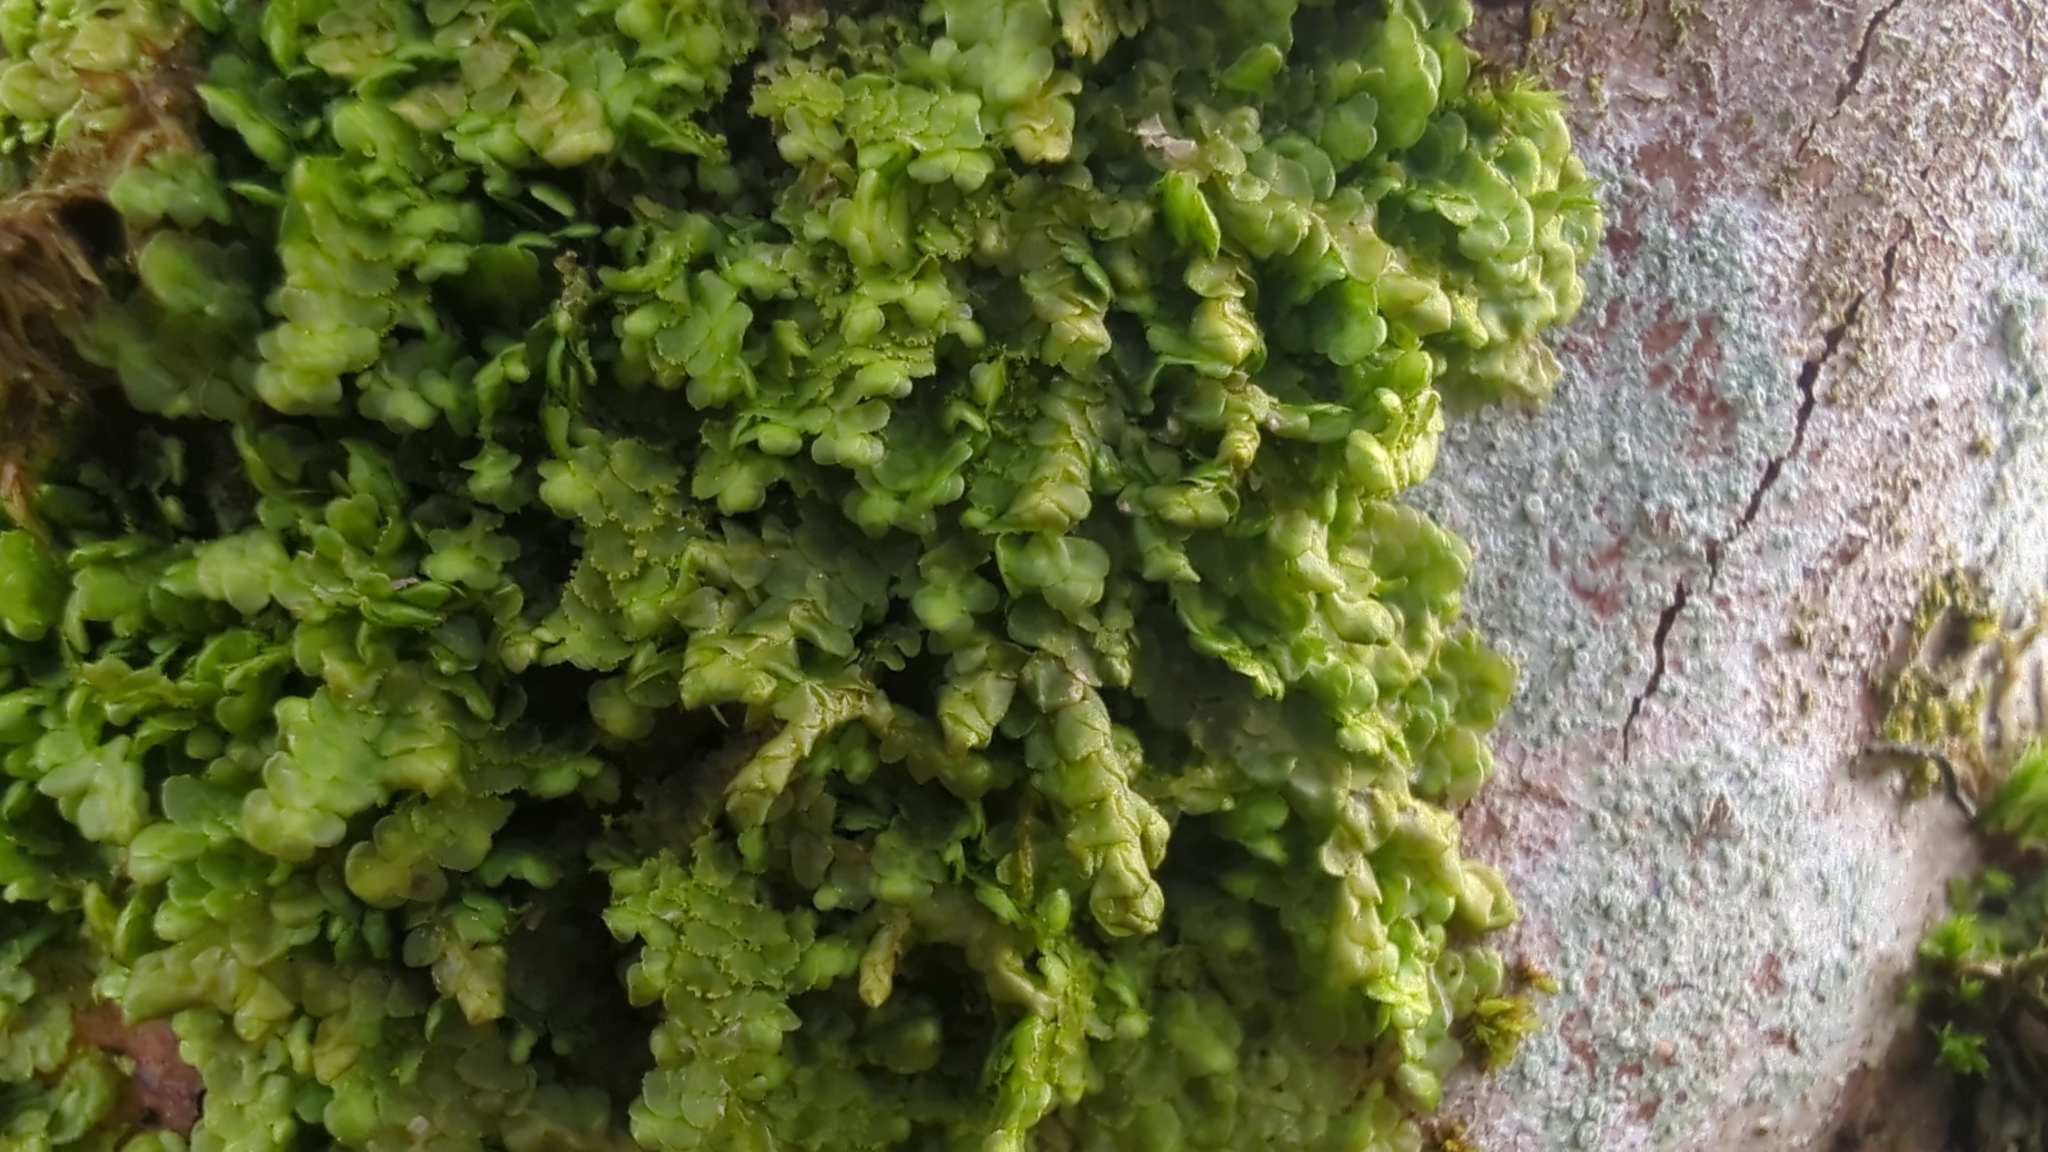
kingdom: Plantae
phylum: Marchantiophyta
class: Jungermanniopsida
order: Porellales
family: Radulaceae
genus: Radula
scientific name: Radula complanata
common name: Flat-leaved scalewort
